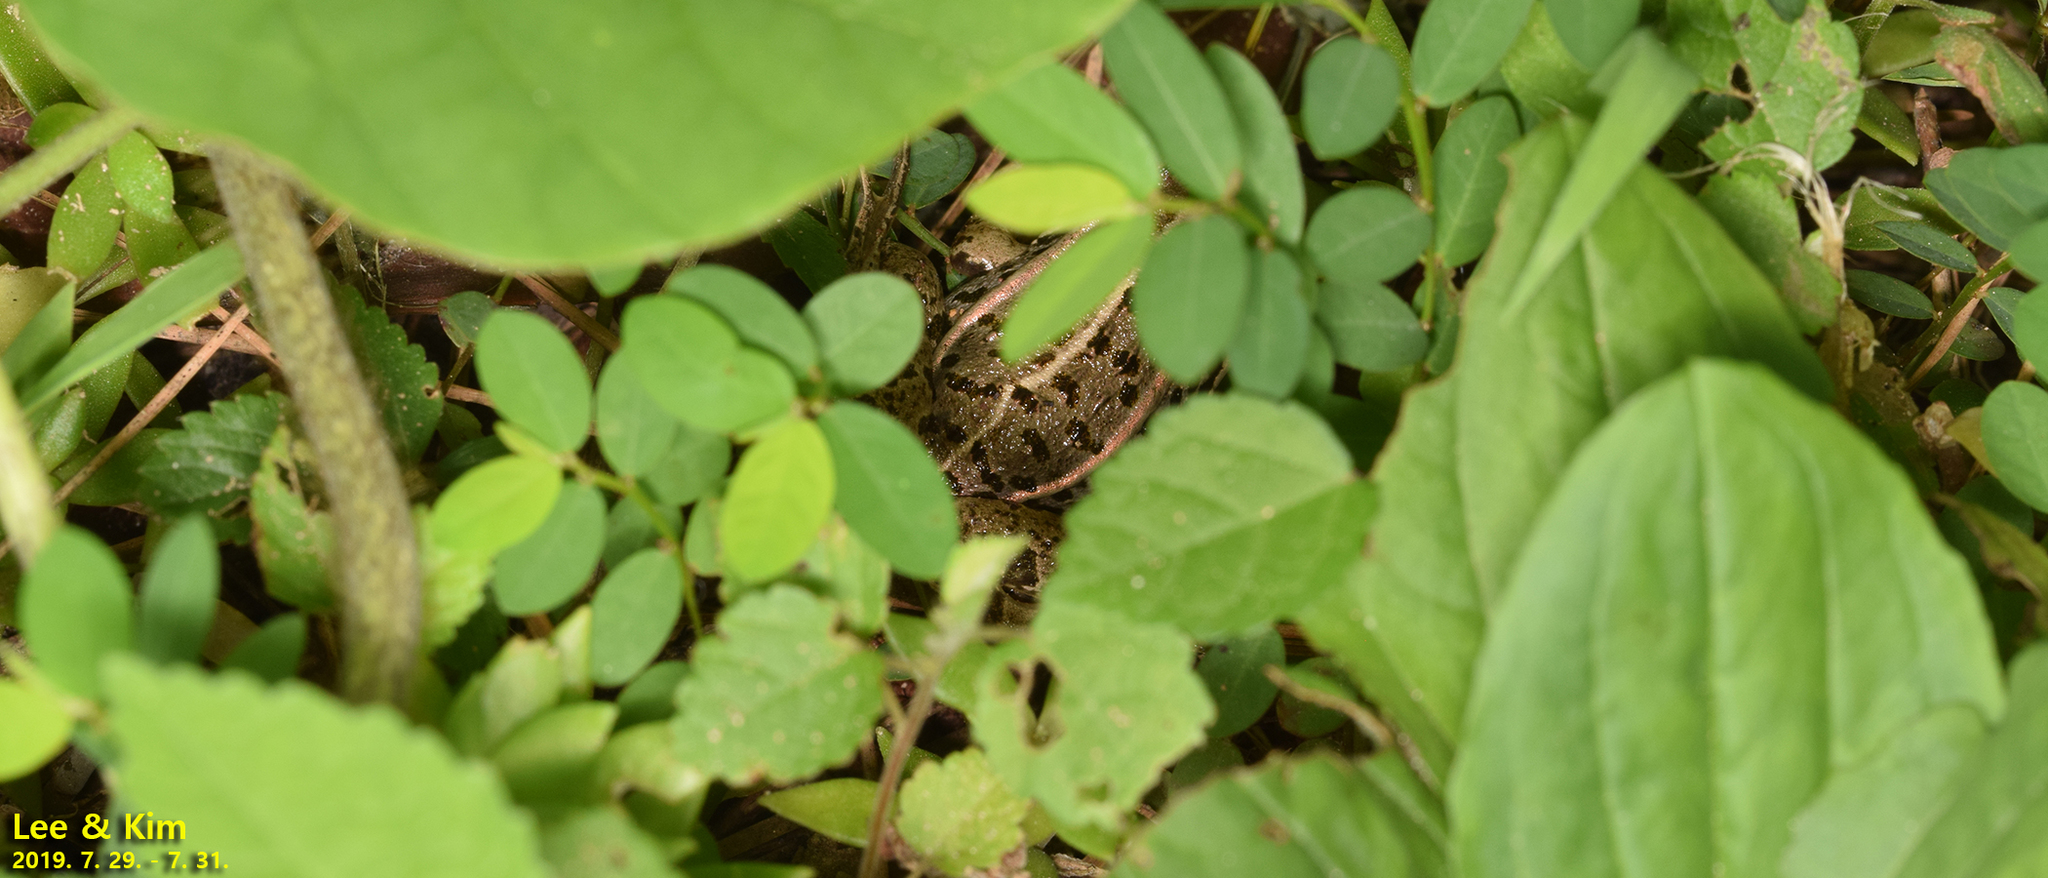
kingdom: Animalia
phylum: Chordata
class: Amphibia
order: Anura
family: Ranidae
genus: Pelophylax
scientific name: Pelophylax nigromaculatus
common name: Black-spotted pond frog
